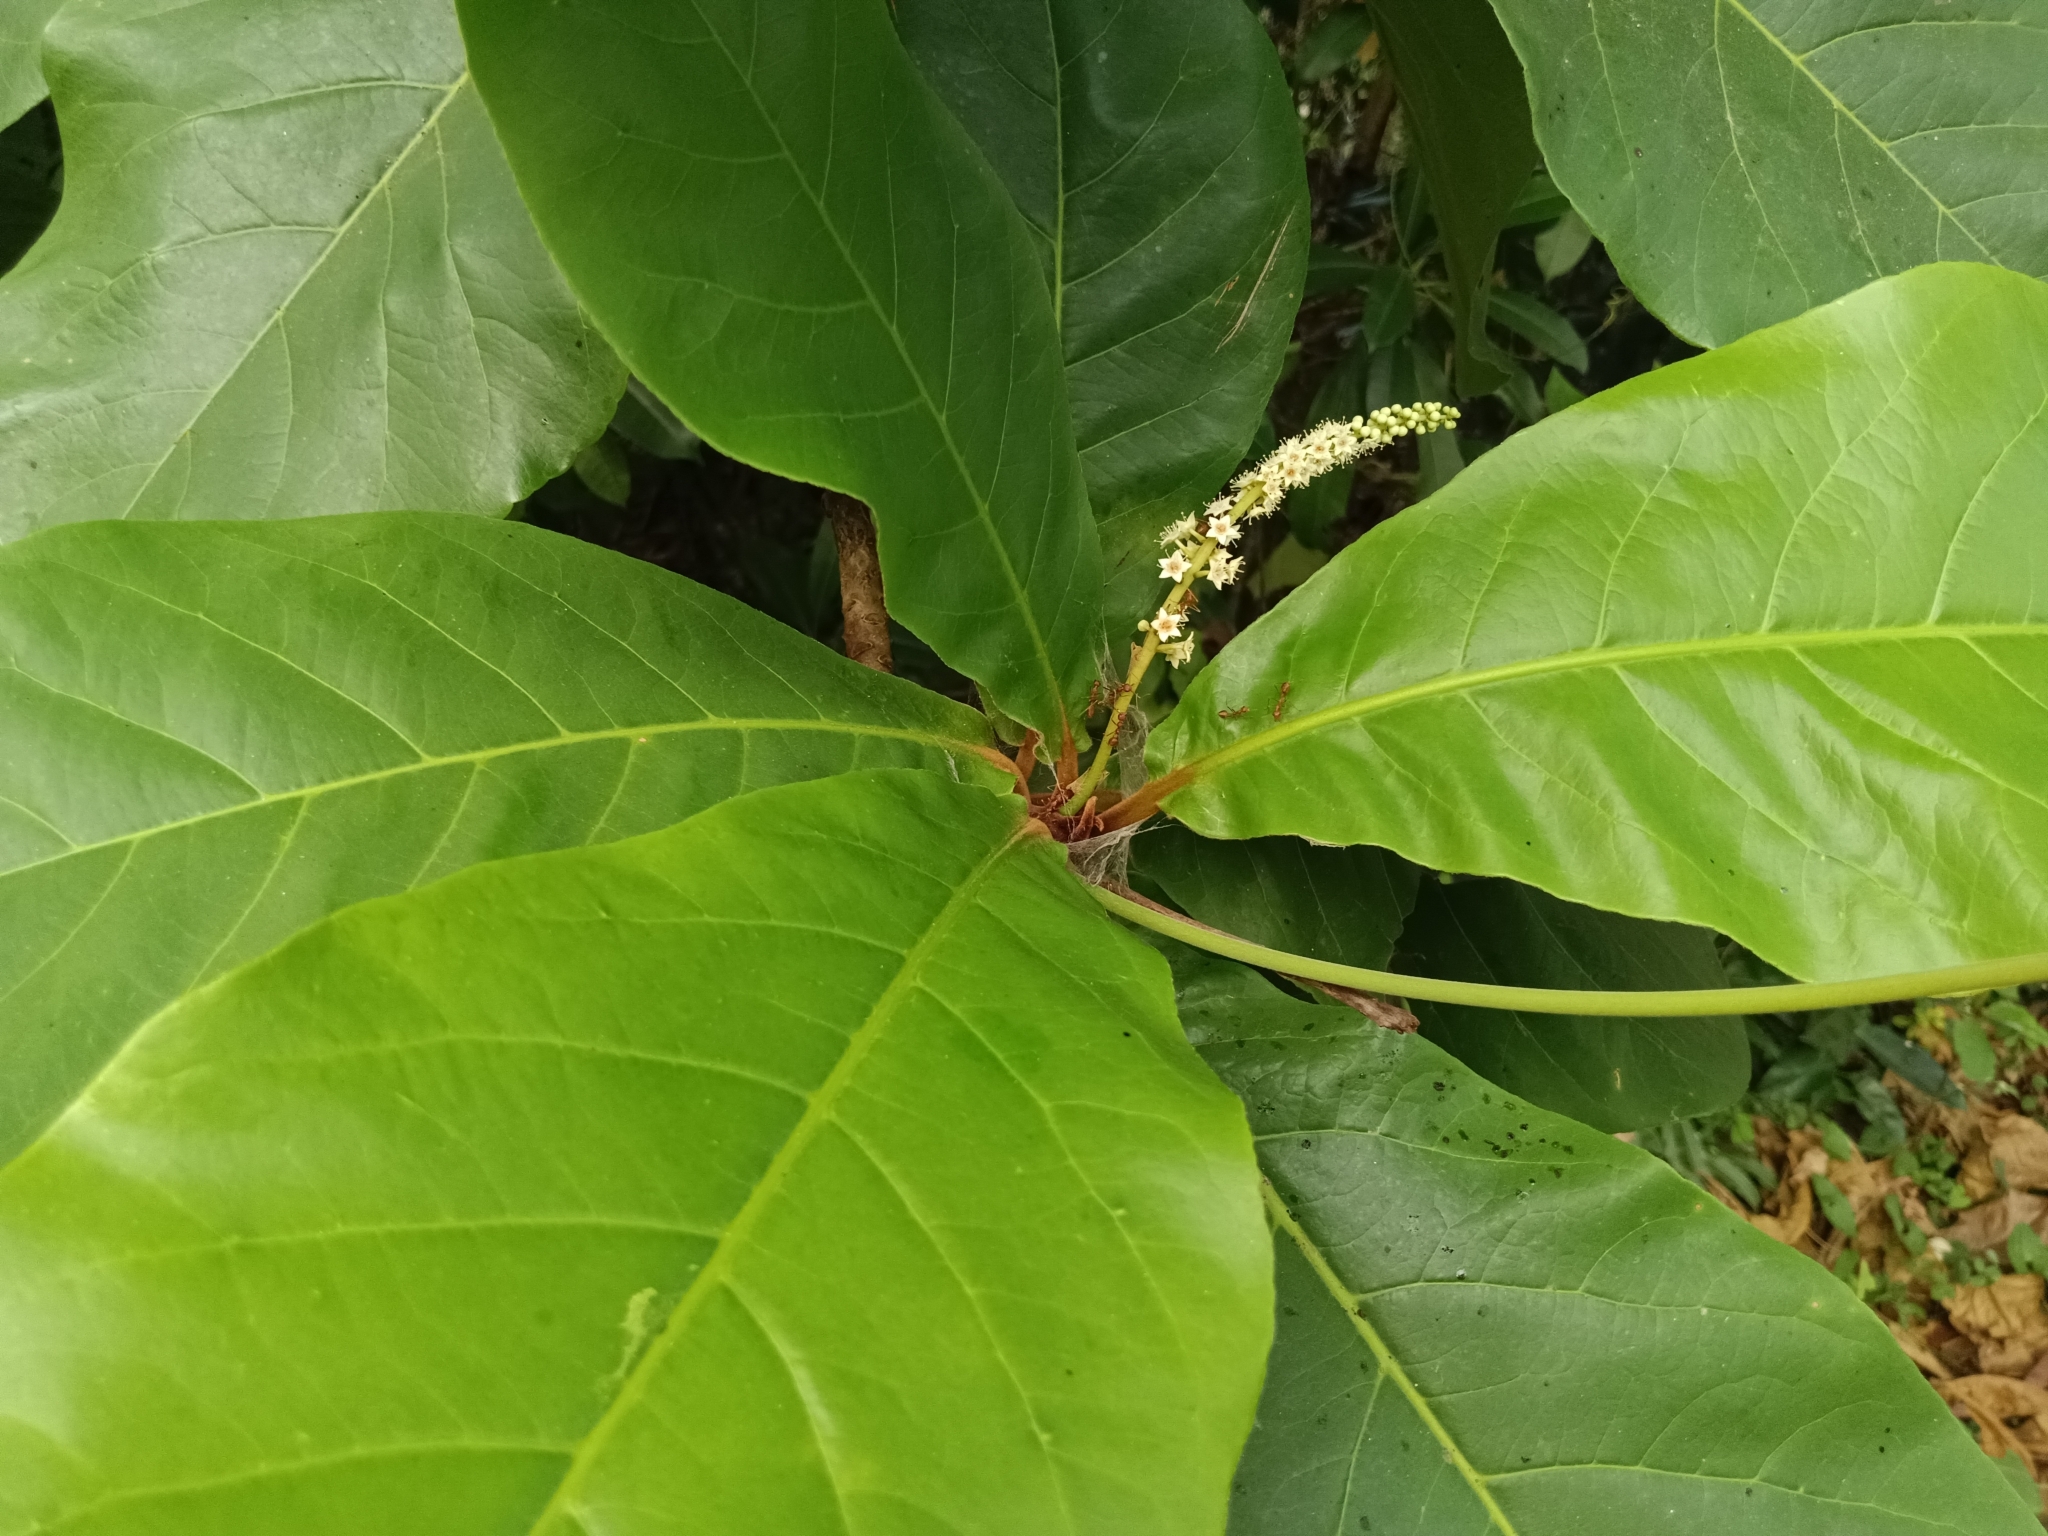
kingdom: Plantae
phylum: Tracheophyta
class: Magnoliopsida
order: Myrtales
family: Combretaceae
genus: Terminalia
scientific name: Terminalia catappa
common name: Tropical almond
